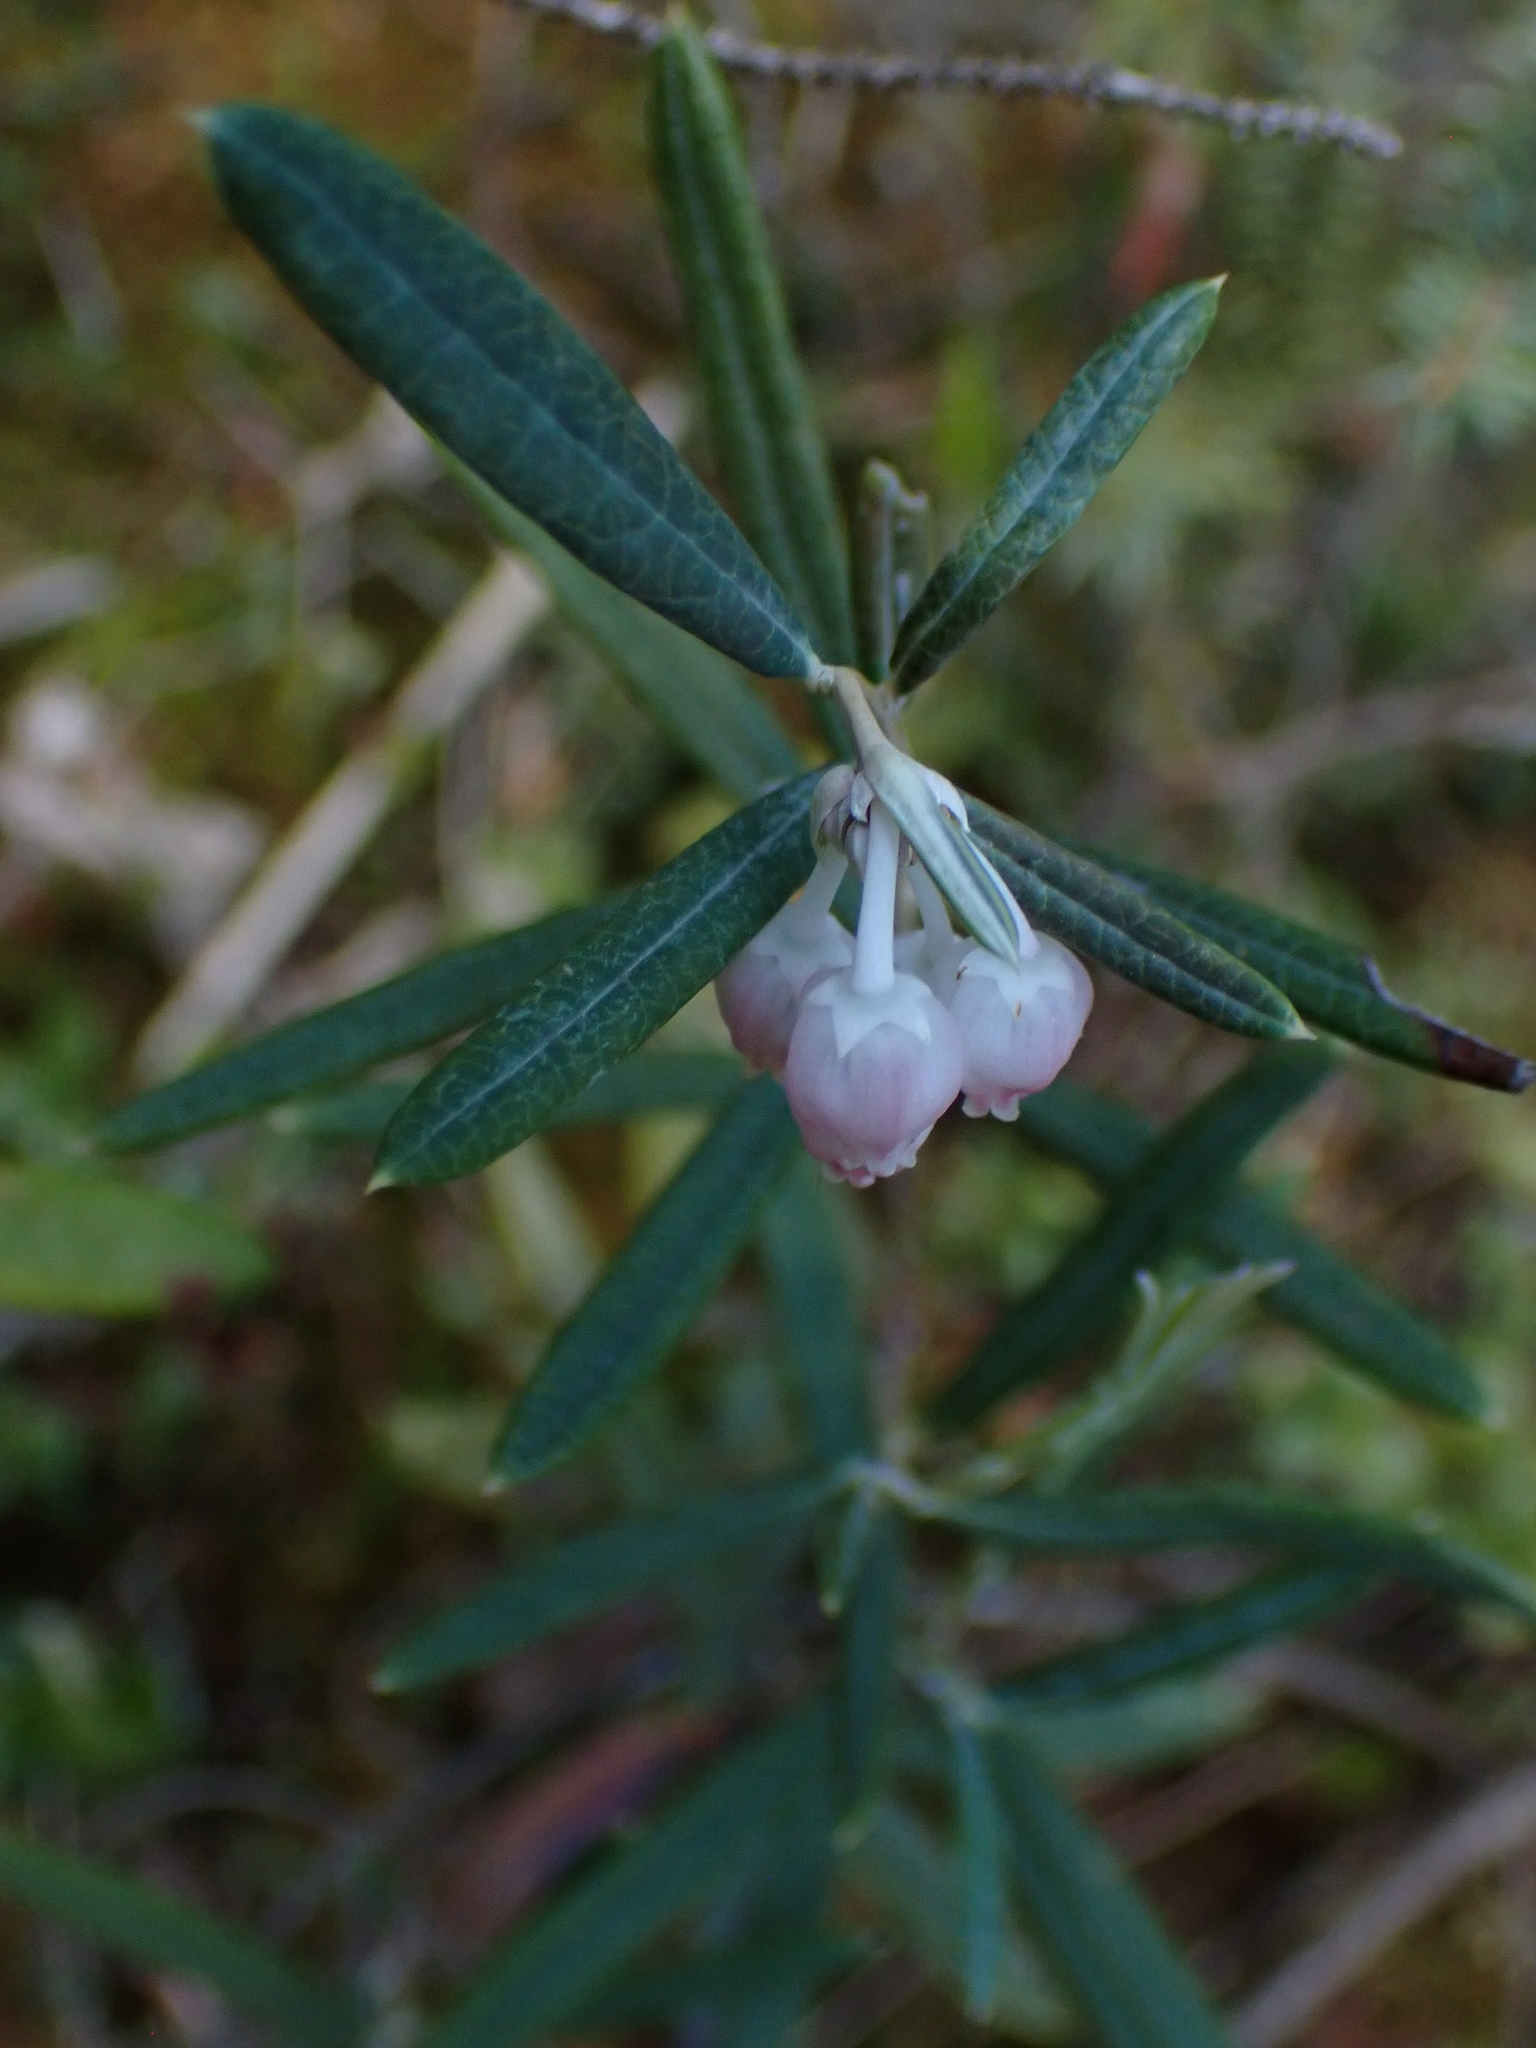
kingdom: Plantae
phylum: Tracheophyta
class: Magnoliopsida
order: Ericales
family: Ericaceae
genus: Andromeda
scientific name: Andromeda polifolia
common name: Bog-rosemary
